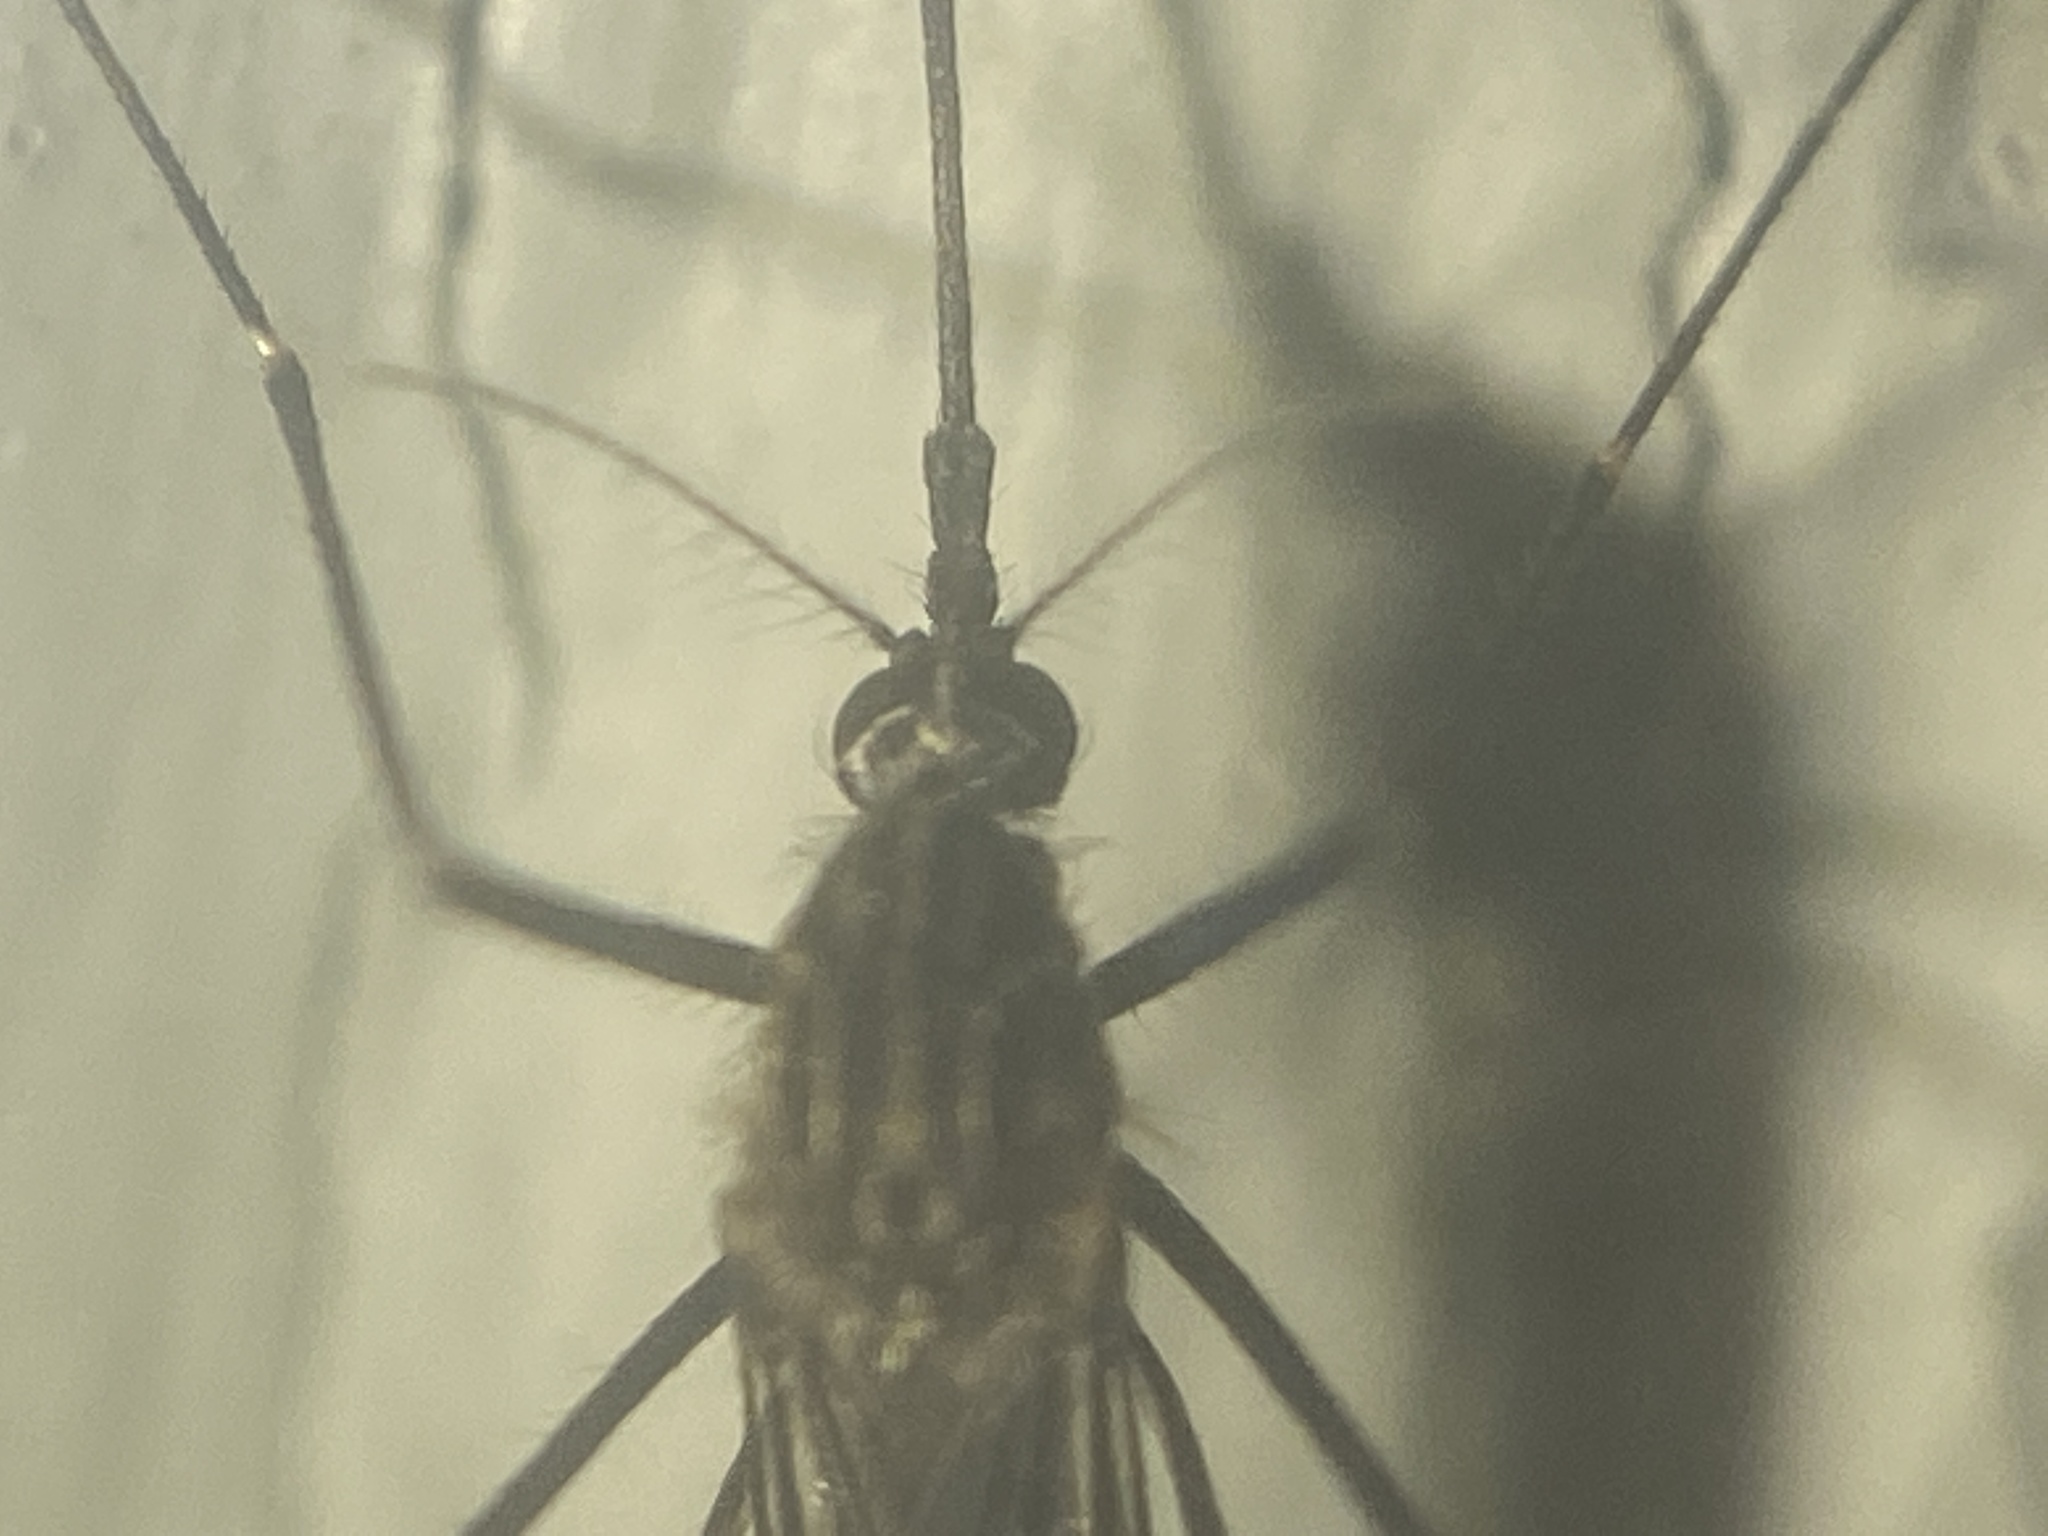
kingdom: Animalia
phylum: Arthropoda
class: Insecta
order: Diptera
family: Culicidae
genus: Aedes
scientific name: Aedes japonicus
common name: Asian bush mosquito
